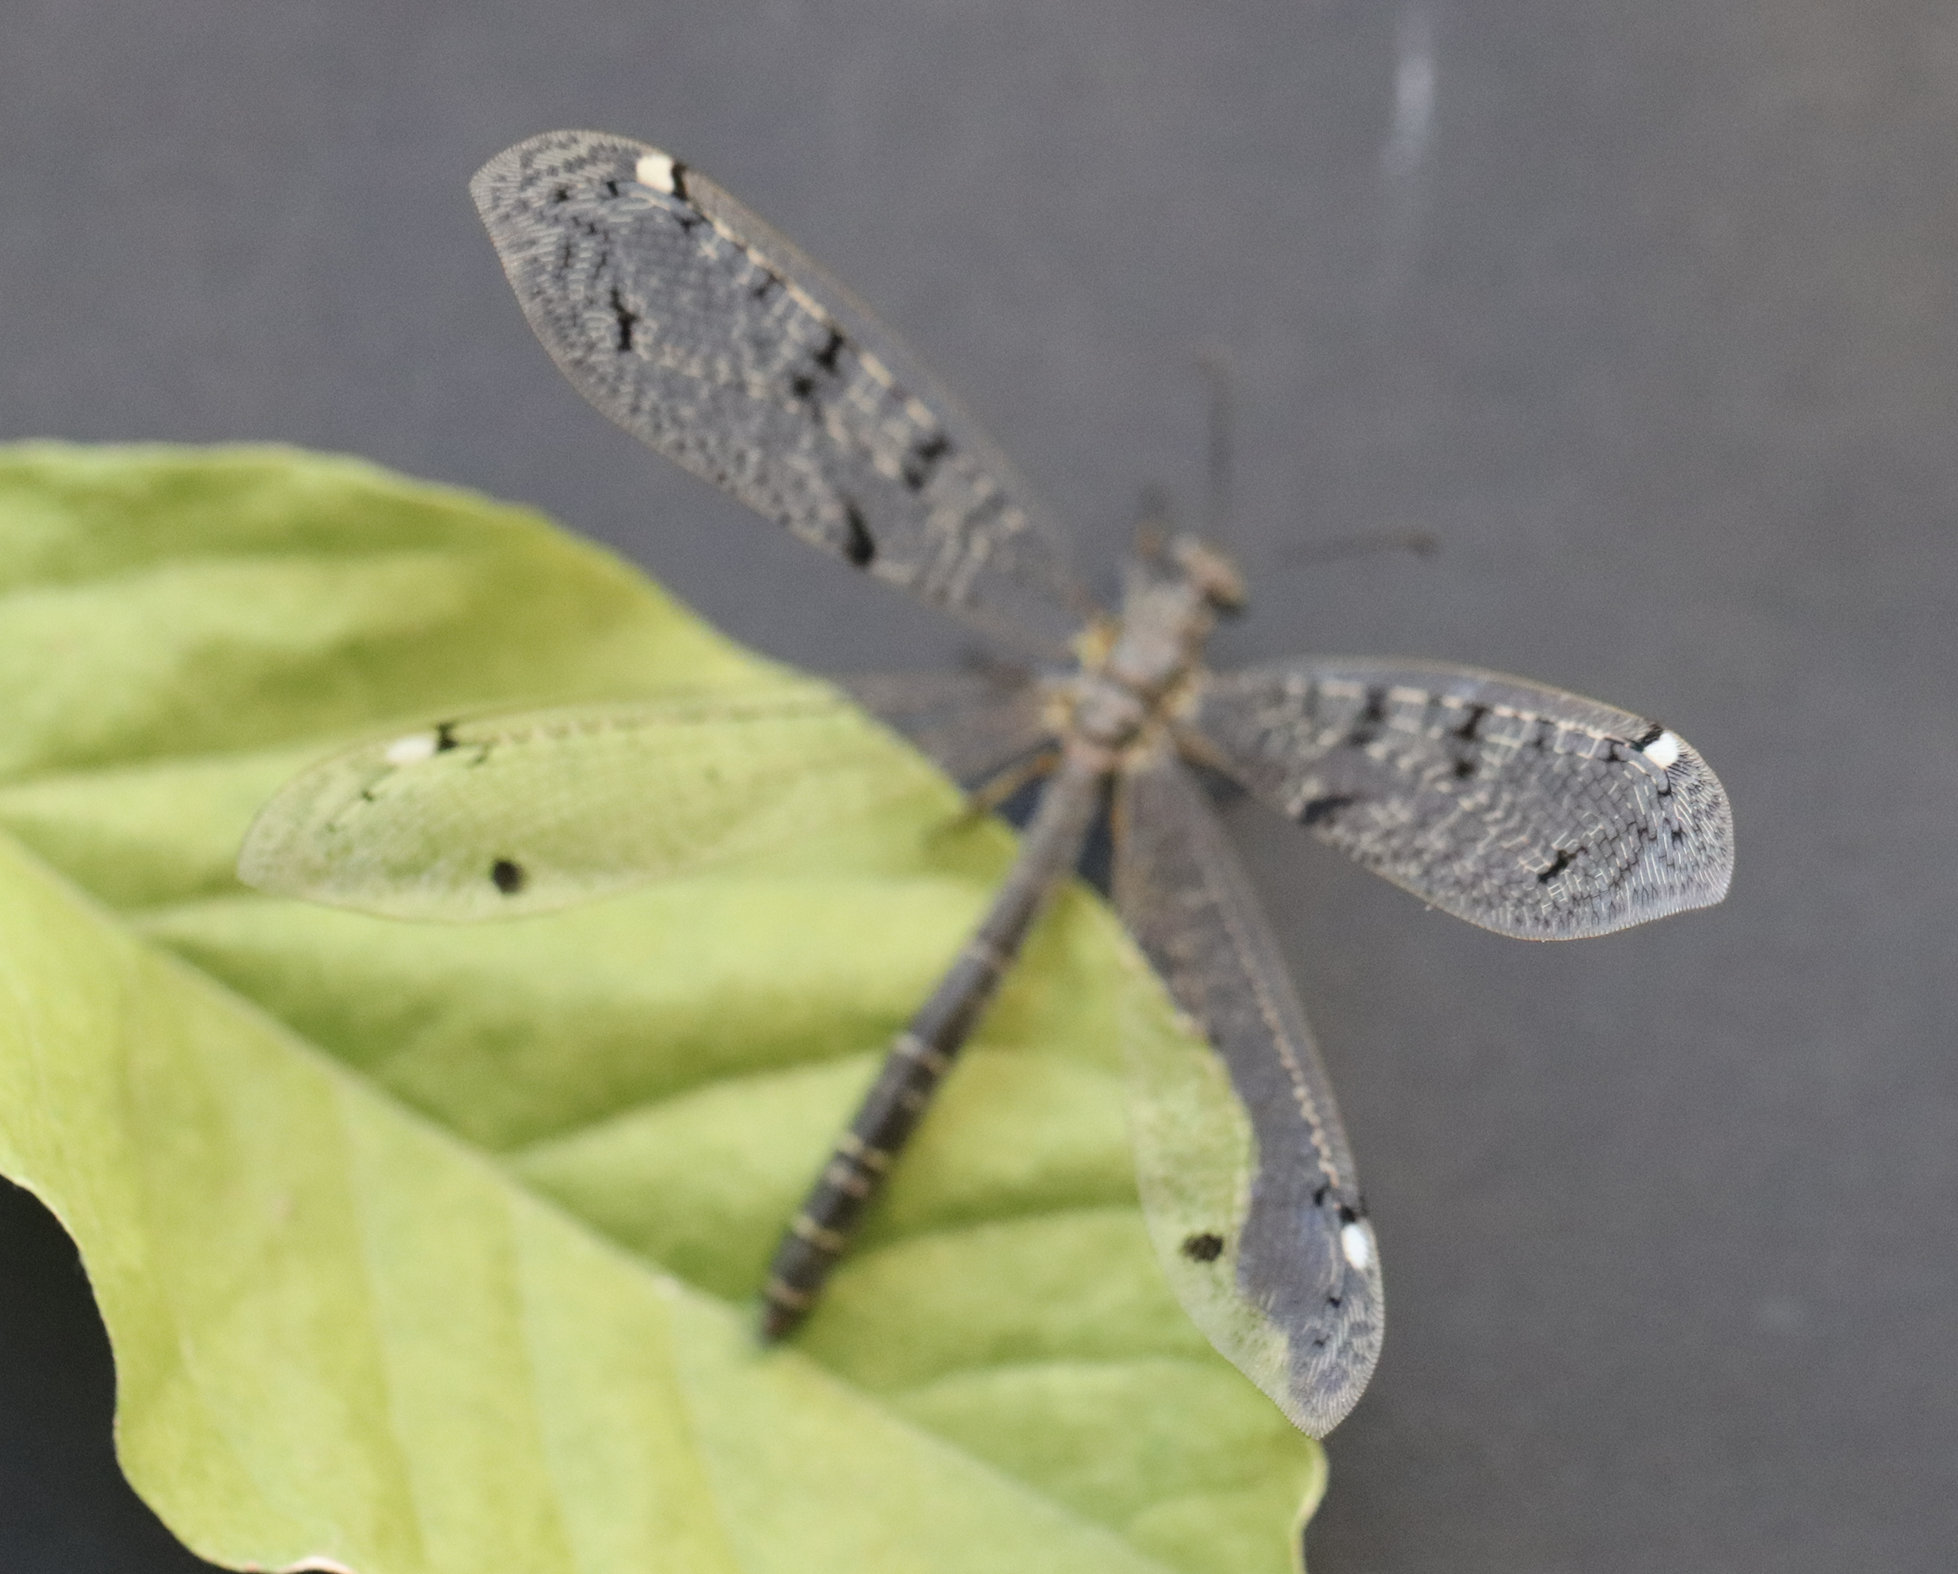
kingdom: Animalia
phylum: Arthropoda
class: Insecta
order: Neuroptera
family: Myrmeleontidae
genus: Distoleon
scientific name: Distoleon tetragrammicus
